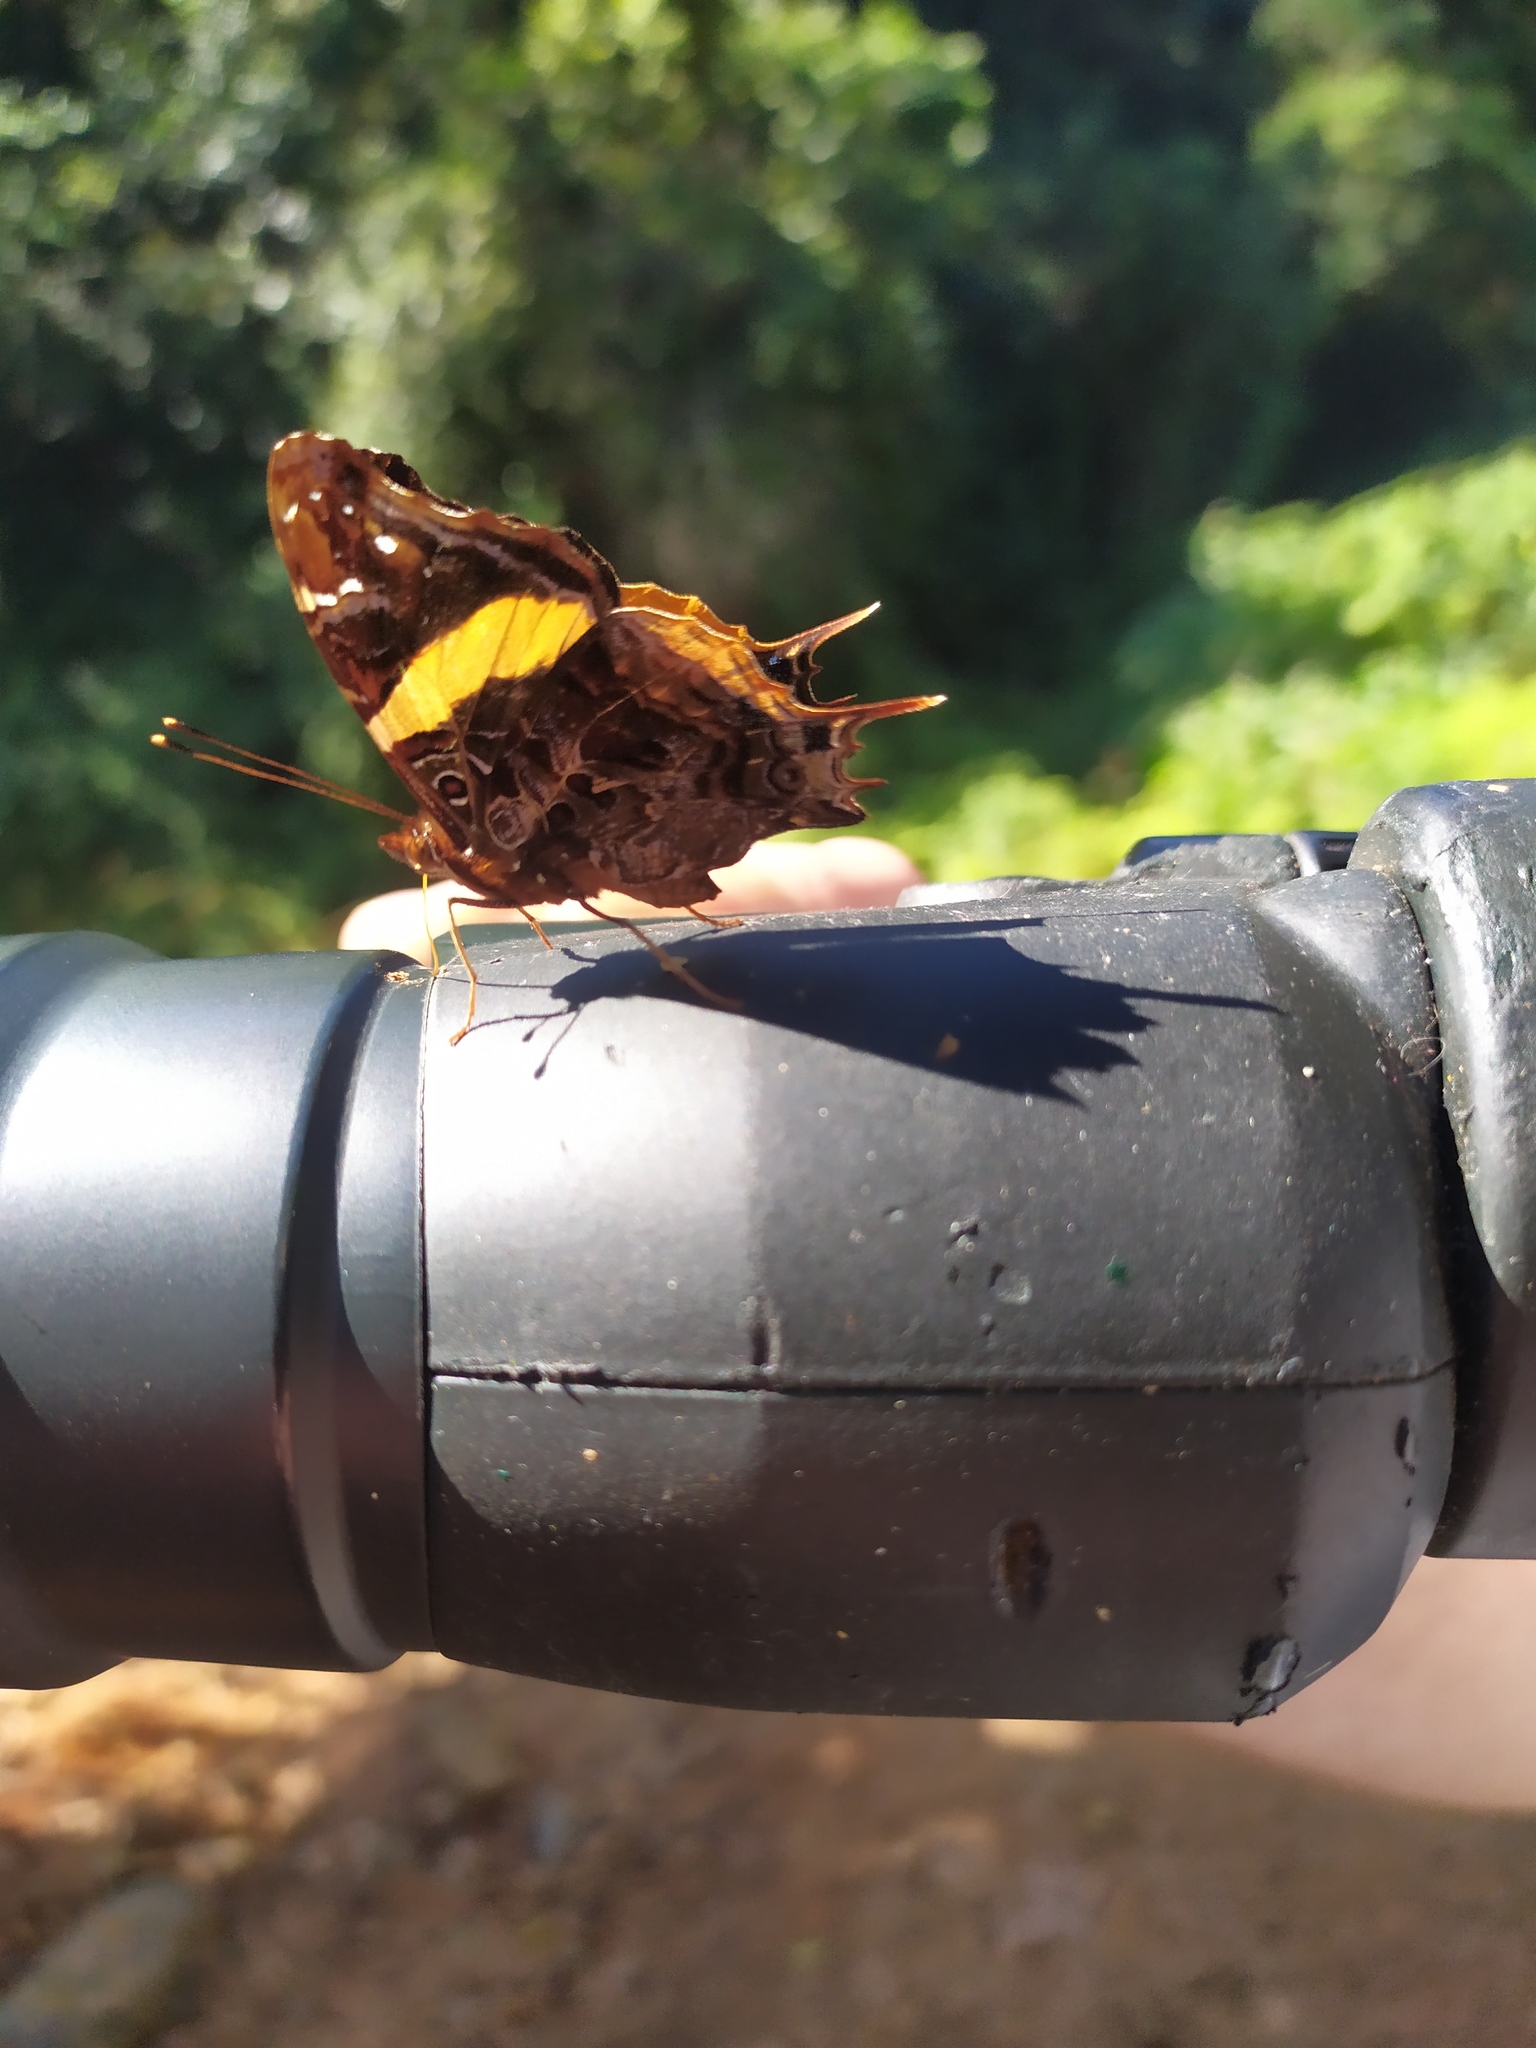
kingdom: Animalia
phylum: Arthropoda
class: Insecta
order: Lepidoptera
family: Nymphalidae
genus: Antanartia
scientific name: Antanartia schaeneia
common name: Long-tailed admiral
